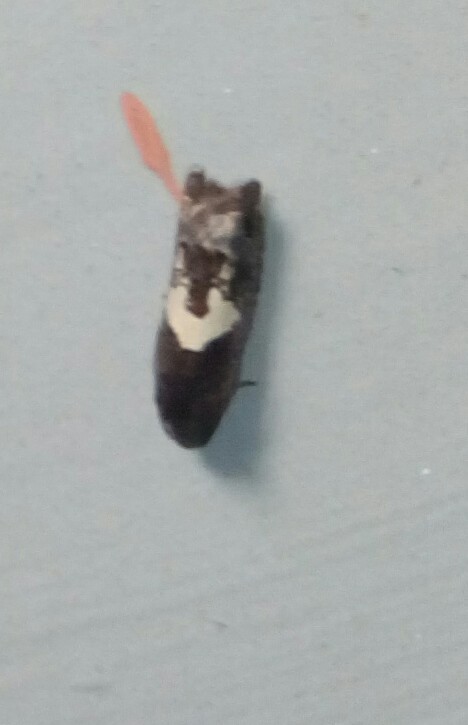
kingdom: Animalia
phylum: Arthropoda
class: Insecta
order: Lepidoptera
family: Tortricidae
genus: Epiblema
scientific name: Epiblema otiosana
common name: Bidens borer moth
